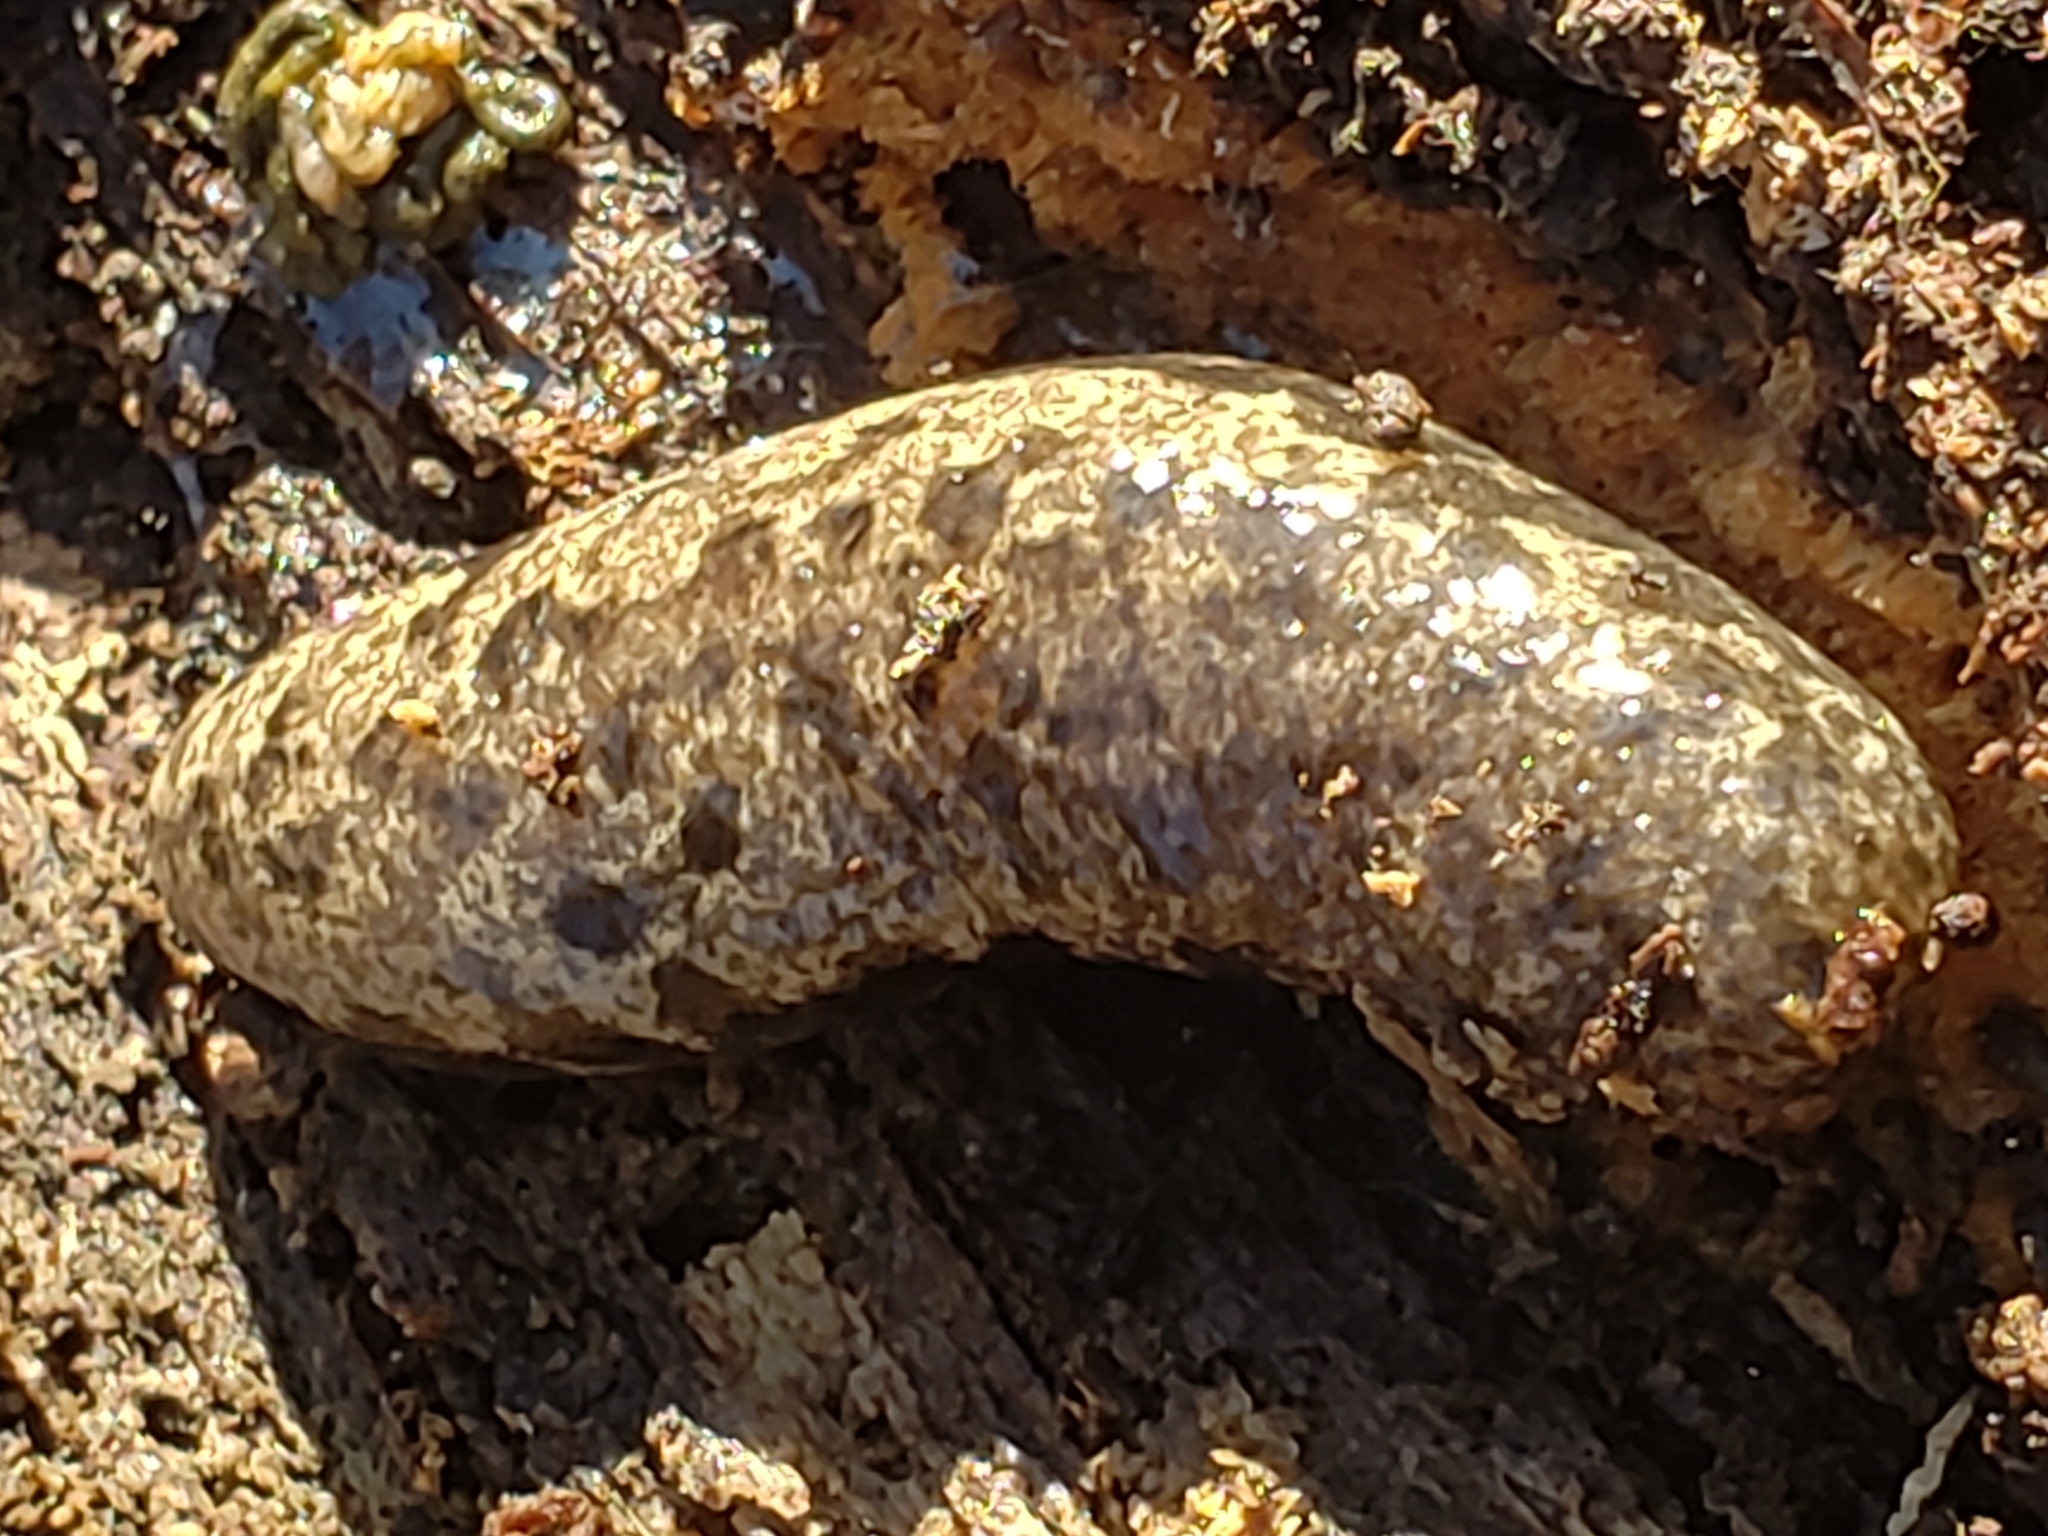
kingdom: Animalia
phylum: Mollusca
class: Gastropoda
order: Stylommatophora
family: Philomycidae
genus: Megapallifera
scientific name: Megapallifera mutabilis
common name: Changeable mantleslug
